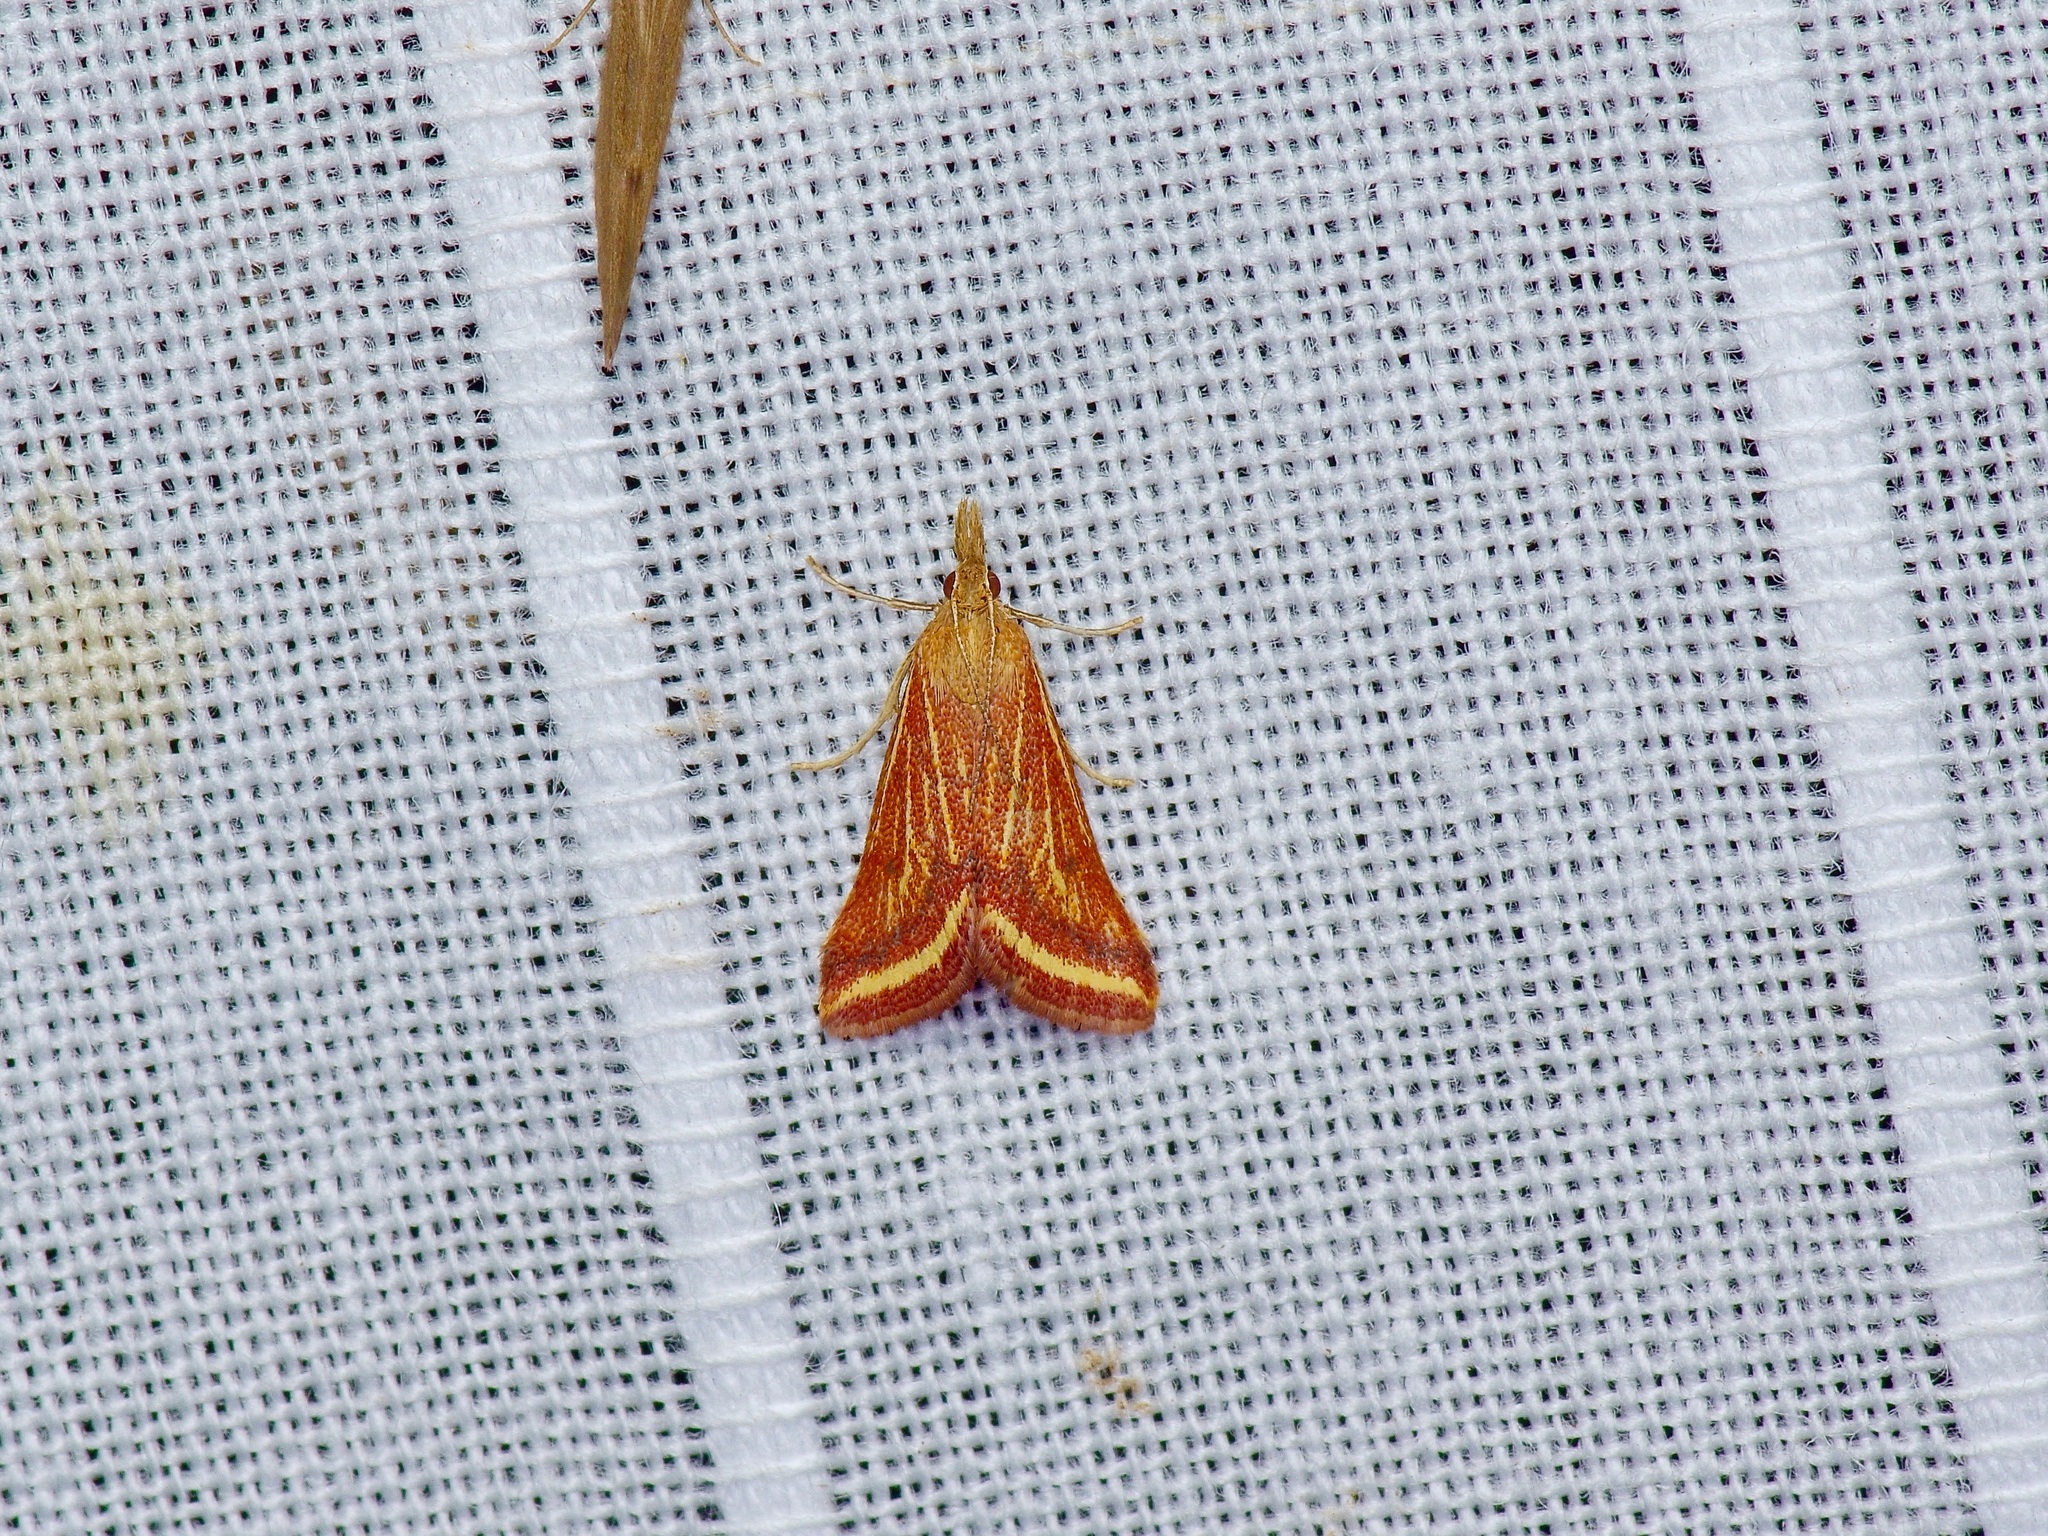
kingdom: Animalia
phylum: Arthropoda
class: Insecta
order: Lepidoptera
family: Crambidae
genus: Microtheoris
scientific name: Microtheoris ophionalis
